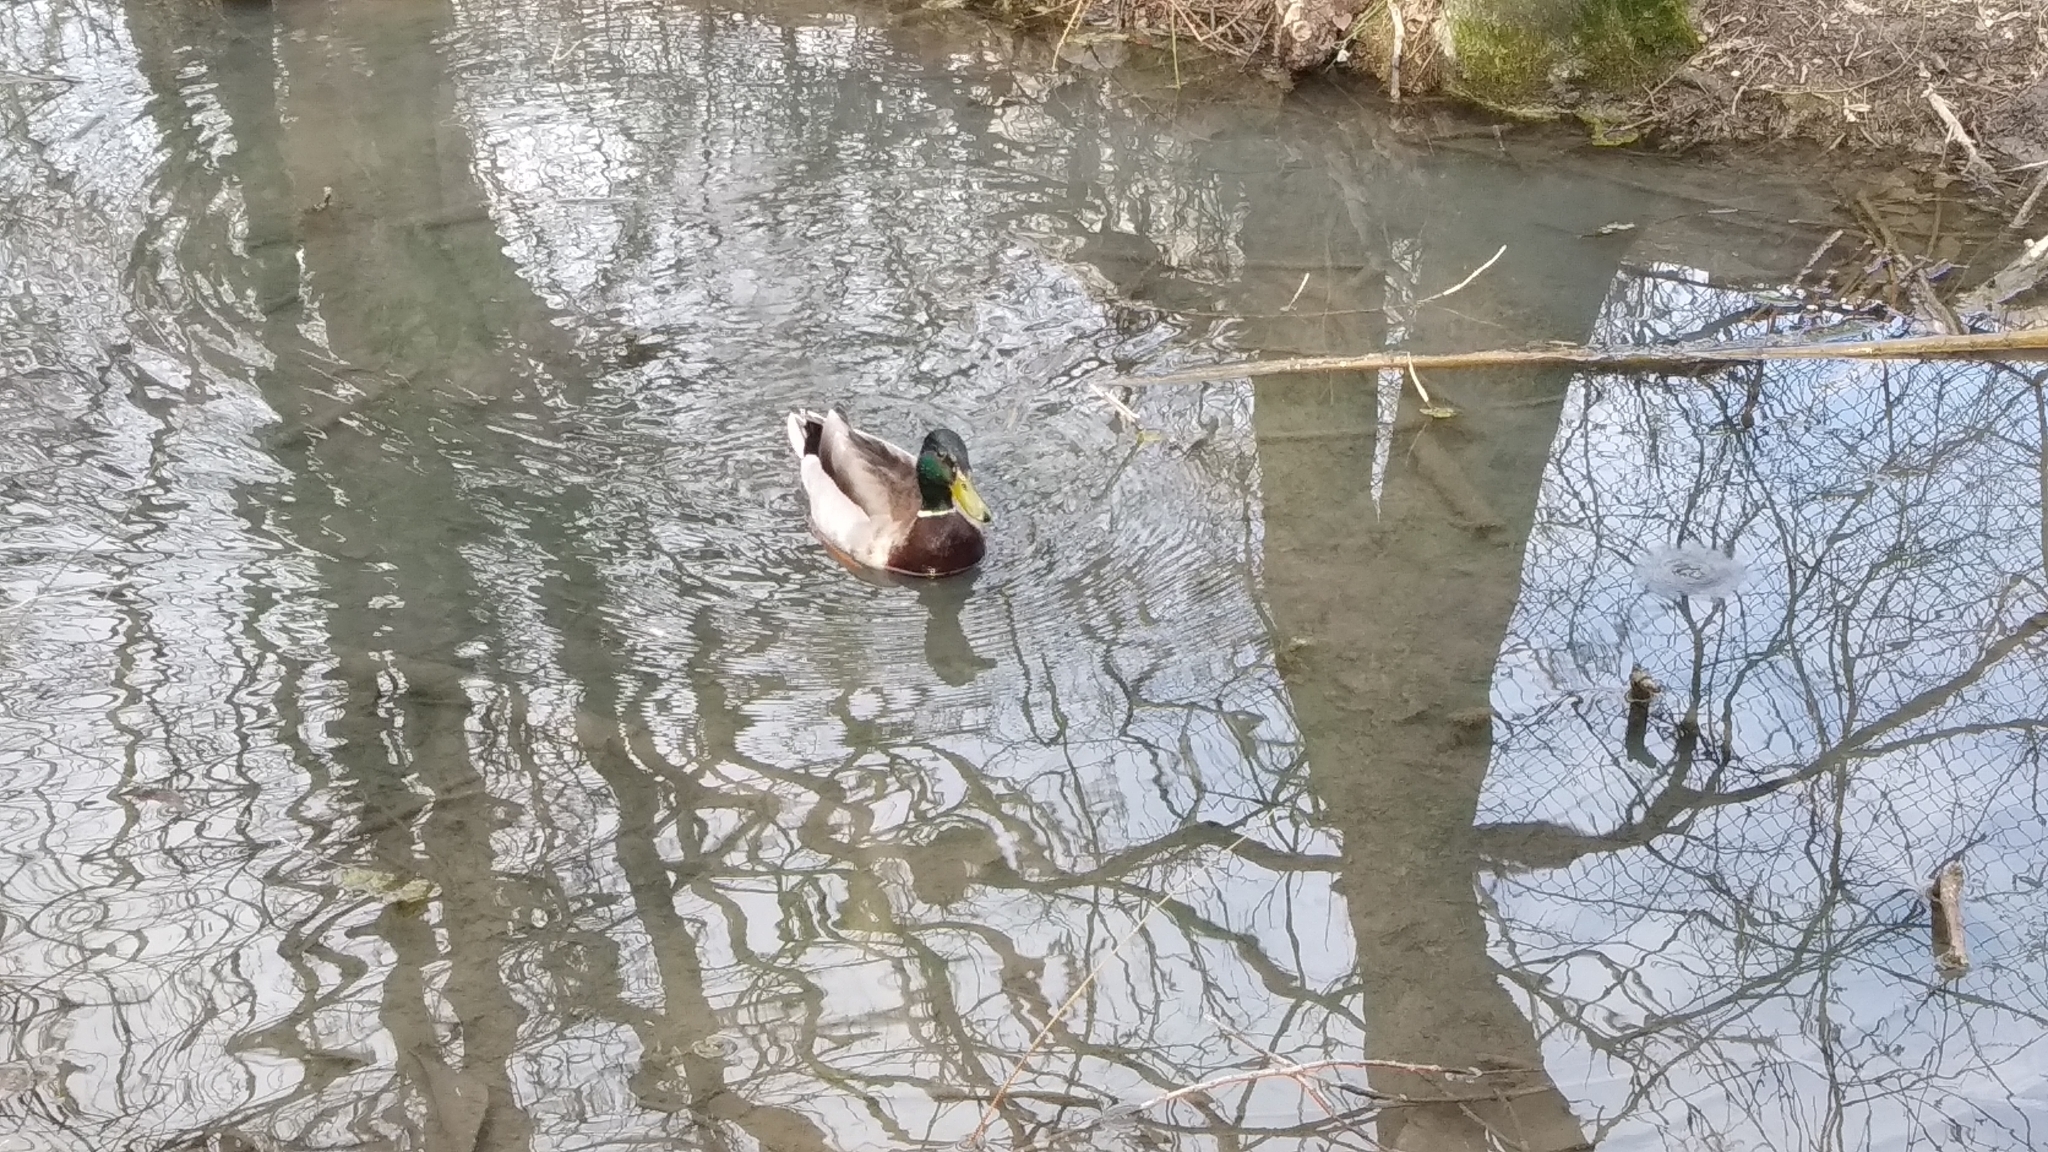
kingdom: Animalia
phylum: Chordata
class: Aves
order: Anseriformes
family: Anatidae
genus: Anas
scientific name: Anas platyrhynchos
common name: Mallard
